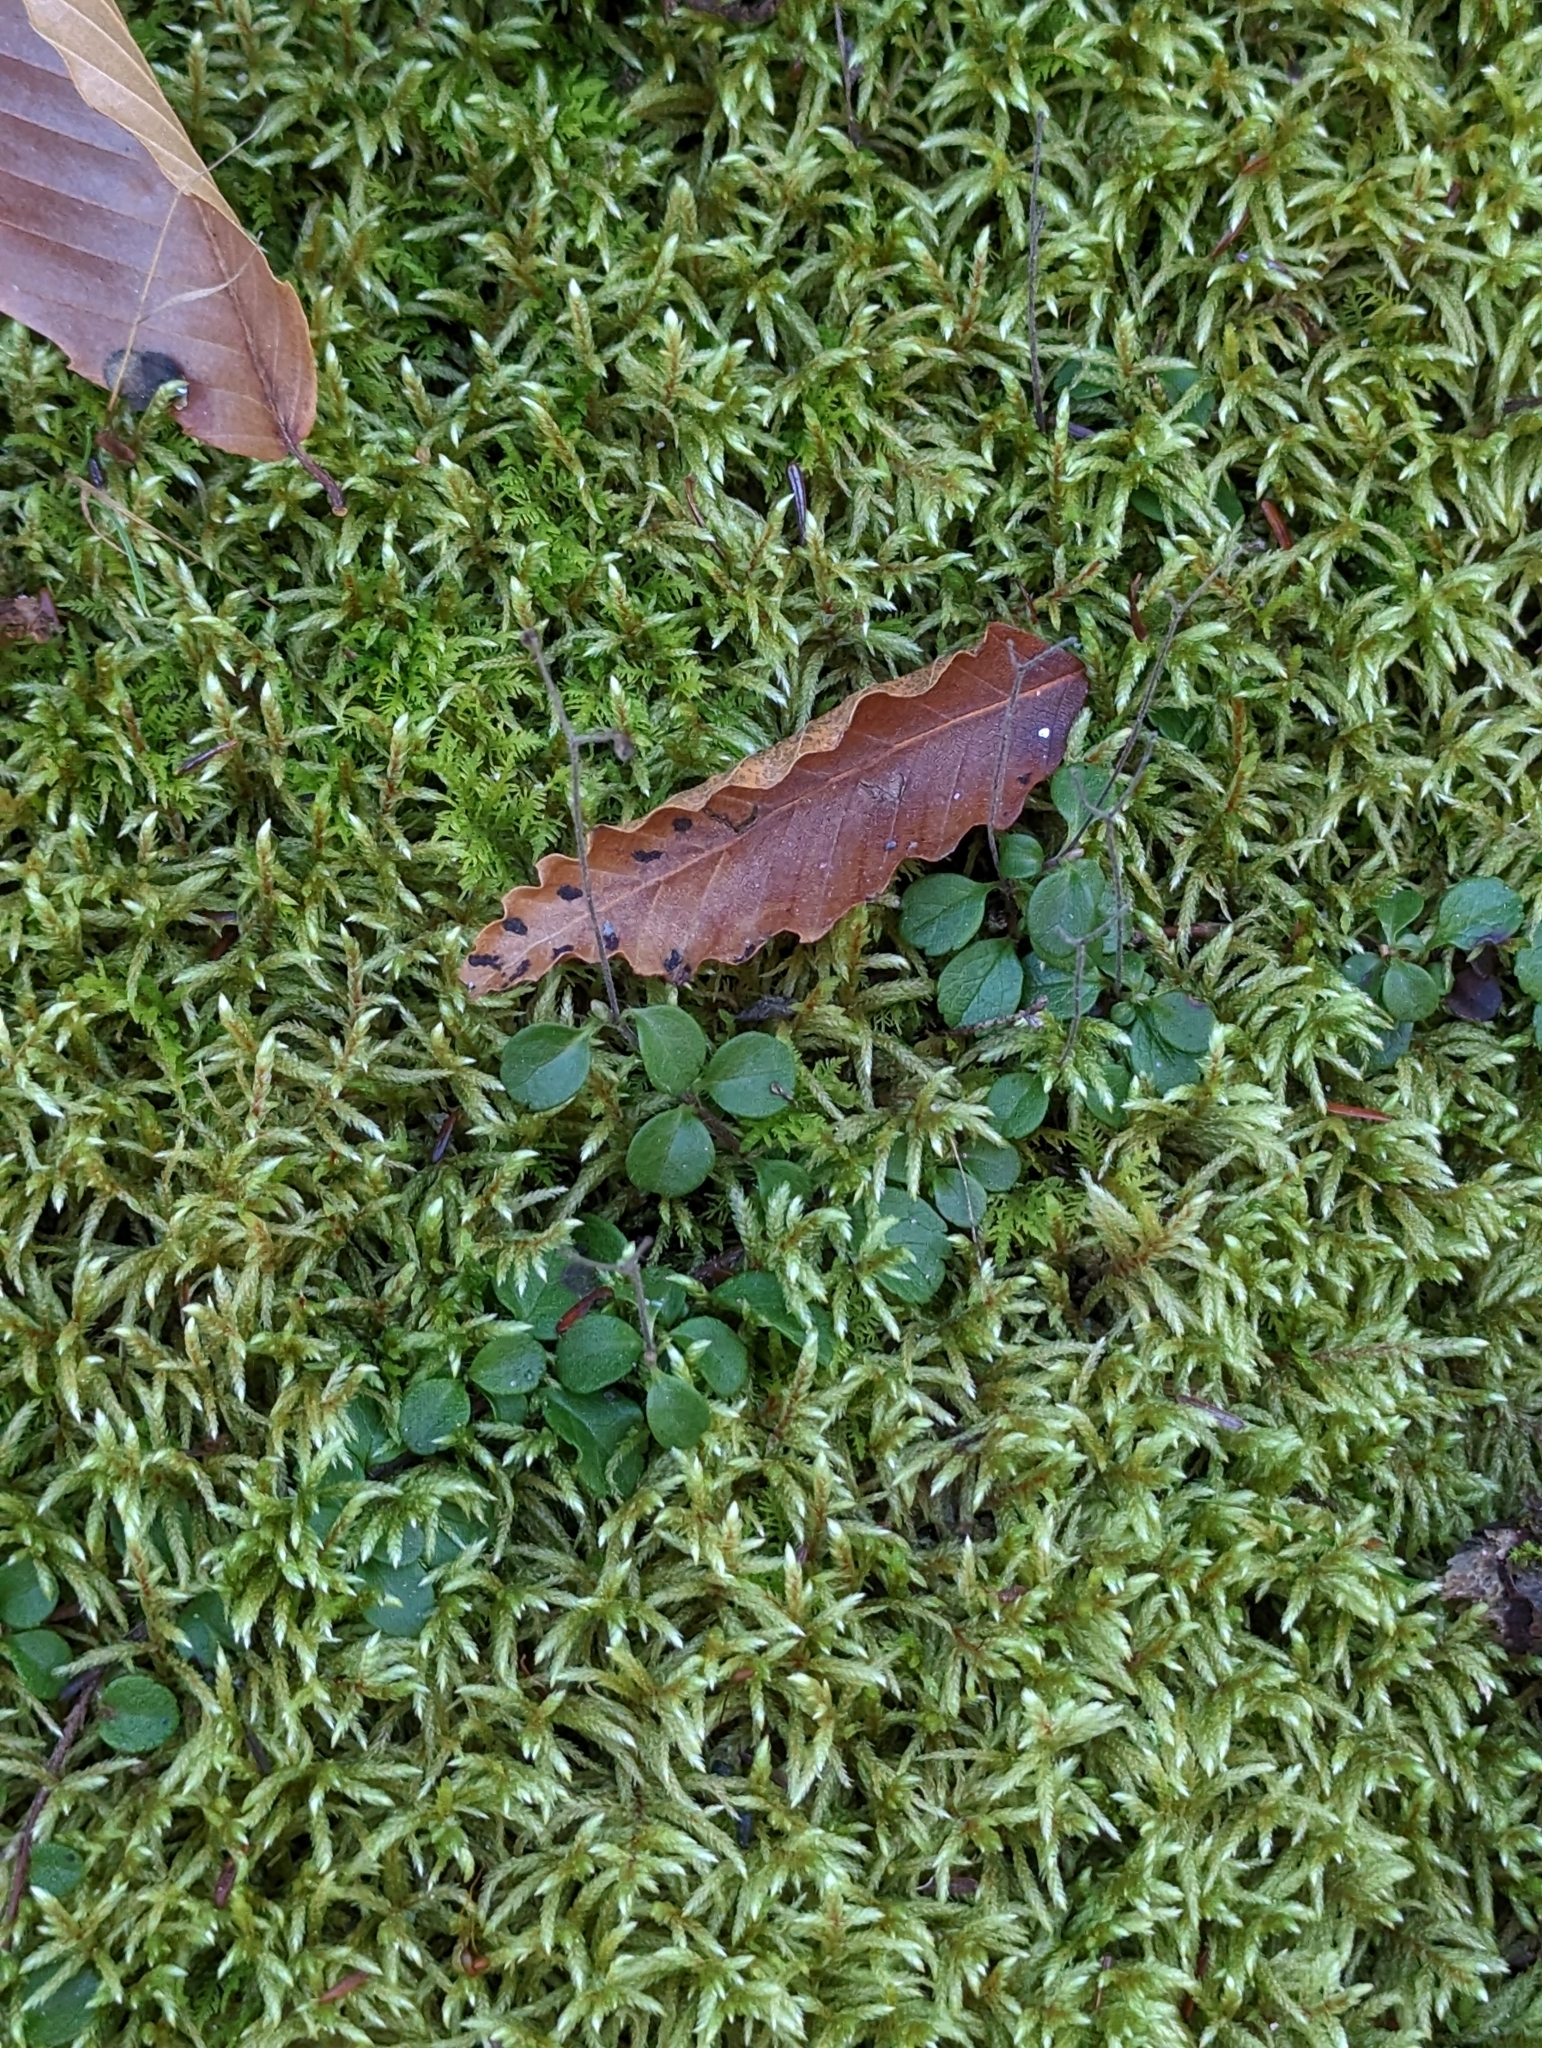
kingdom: Plantae
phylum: Tracheophyta
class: Magnoliopsida
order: Dipsacales
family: Caprifoliaceae
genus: Linnaea
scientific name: Linnaea borealis
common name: Twinflower
